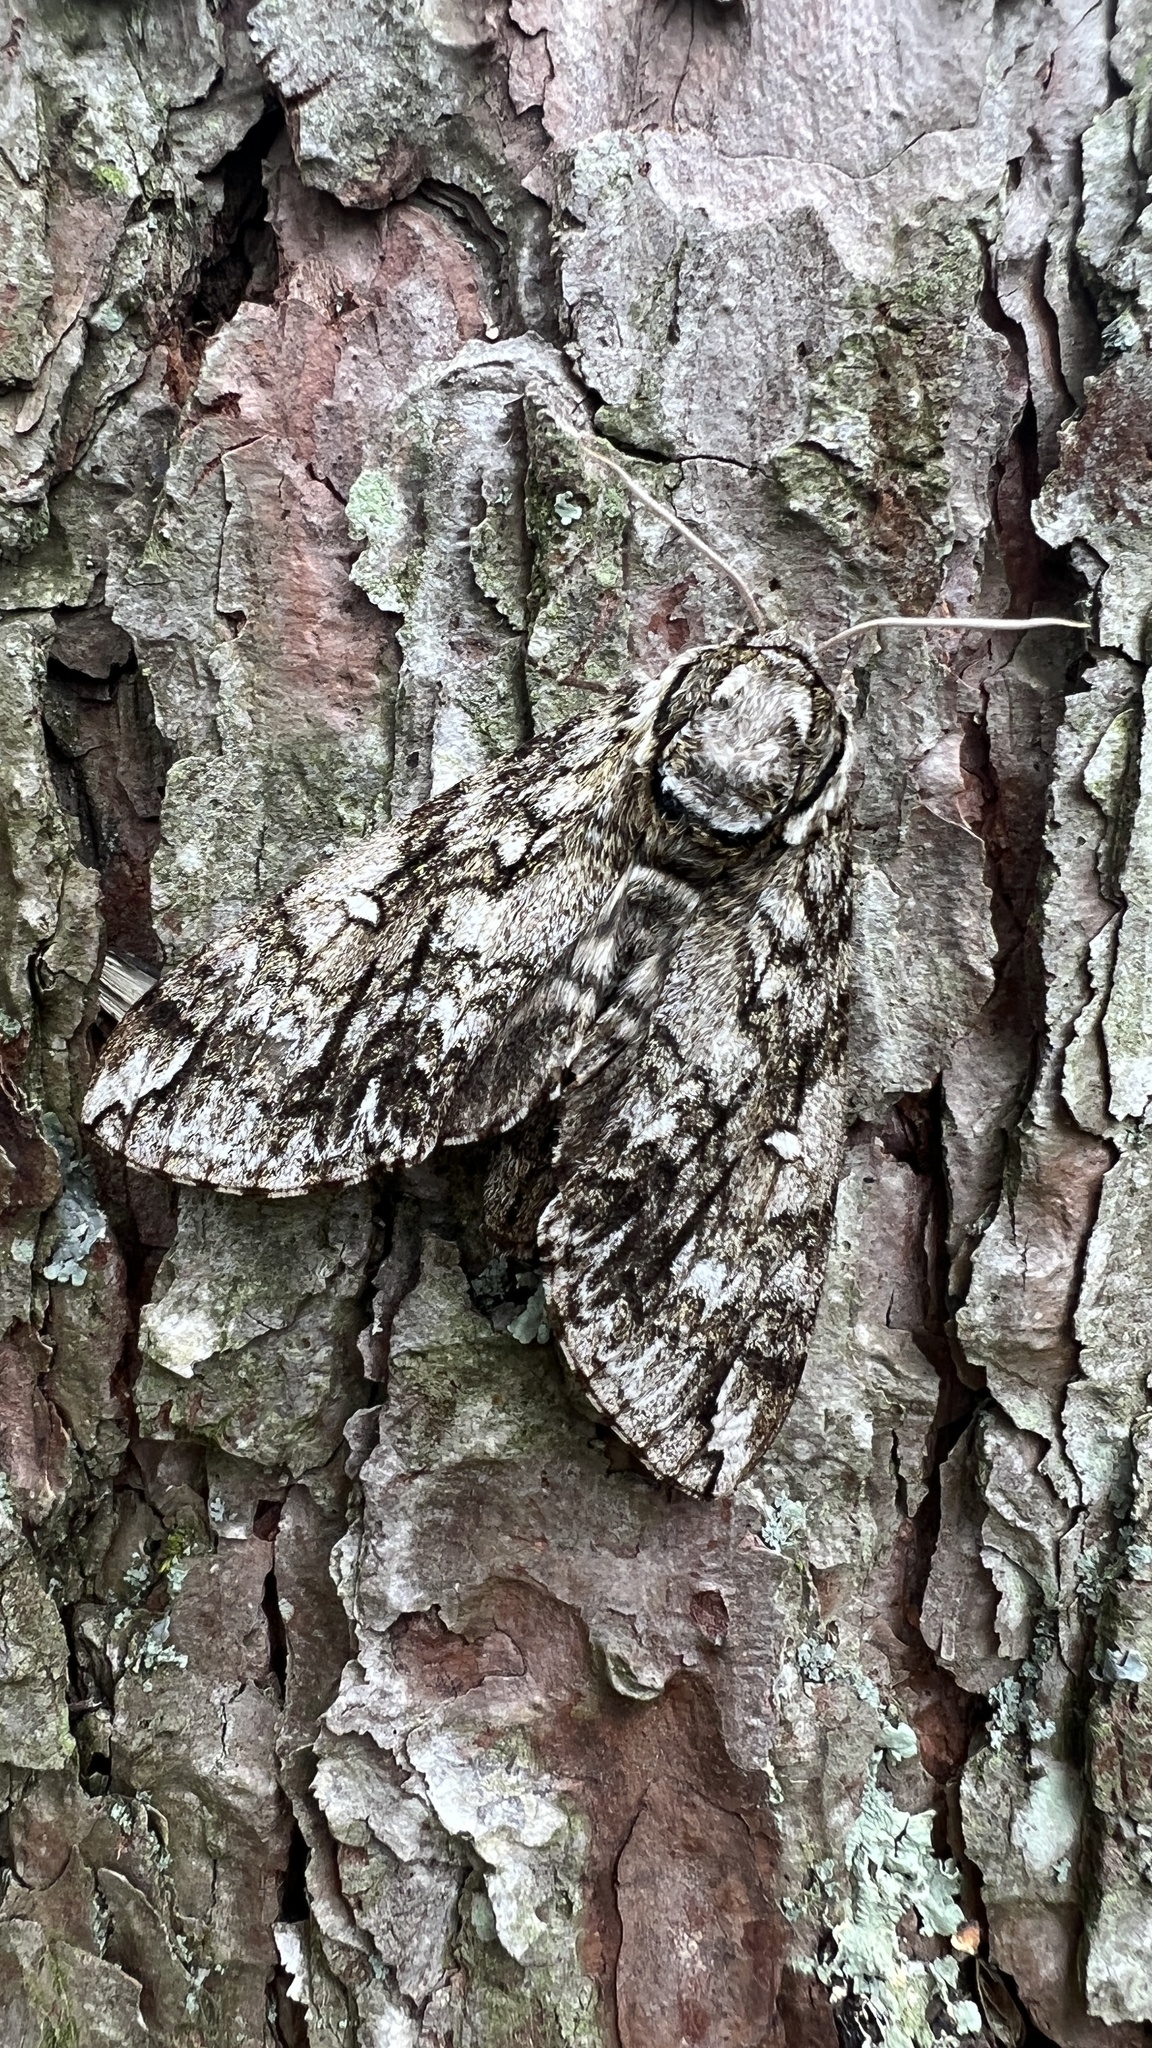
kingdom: Animalia
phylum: Arthropoda
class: Insecta
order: Lepidoptera
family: Sphingidae
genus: Ceratomia
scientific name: Ceratomia undulosa
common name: Waved sphinx
